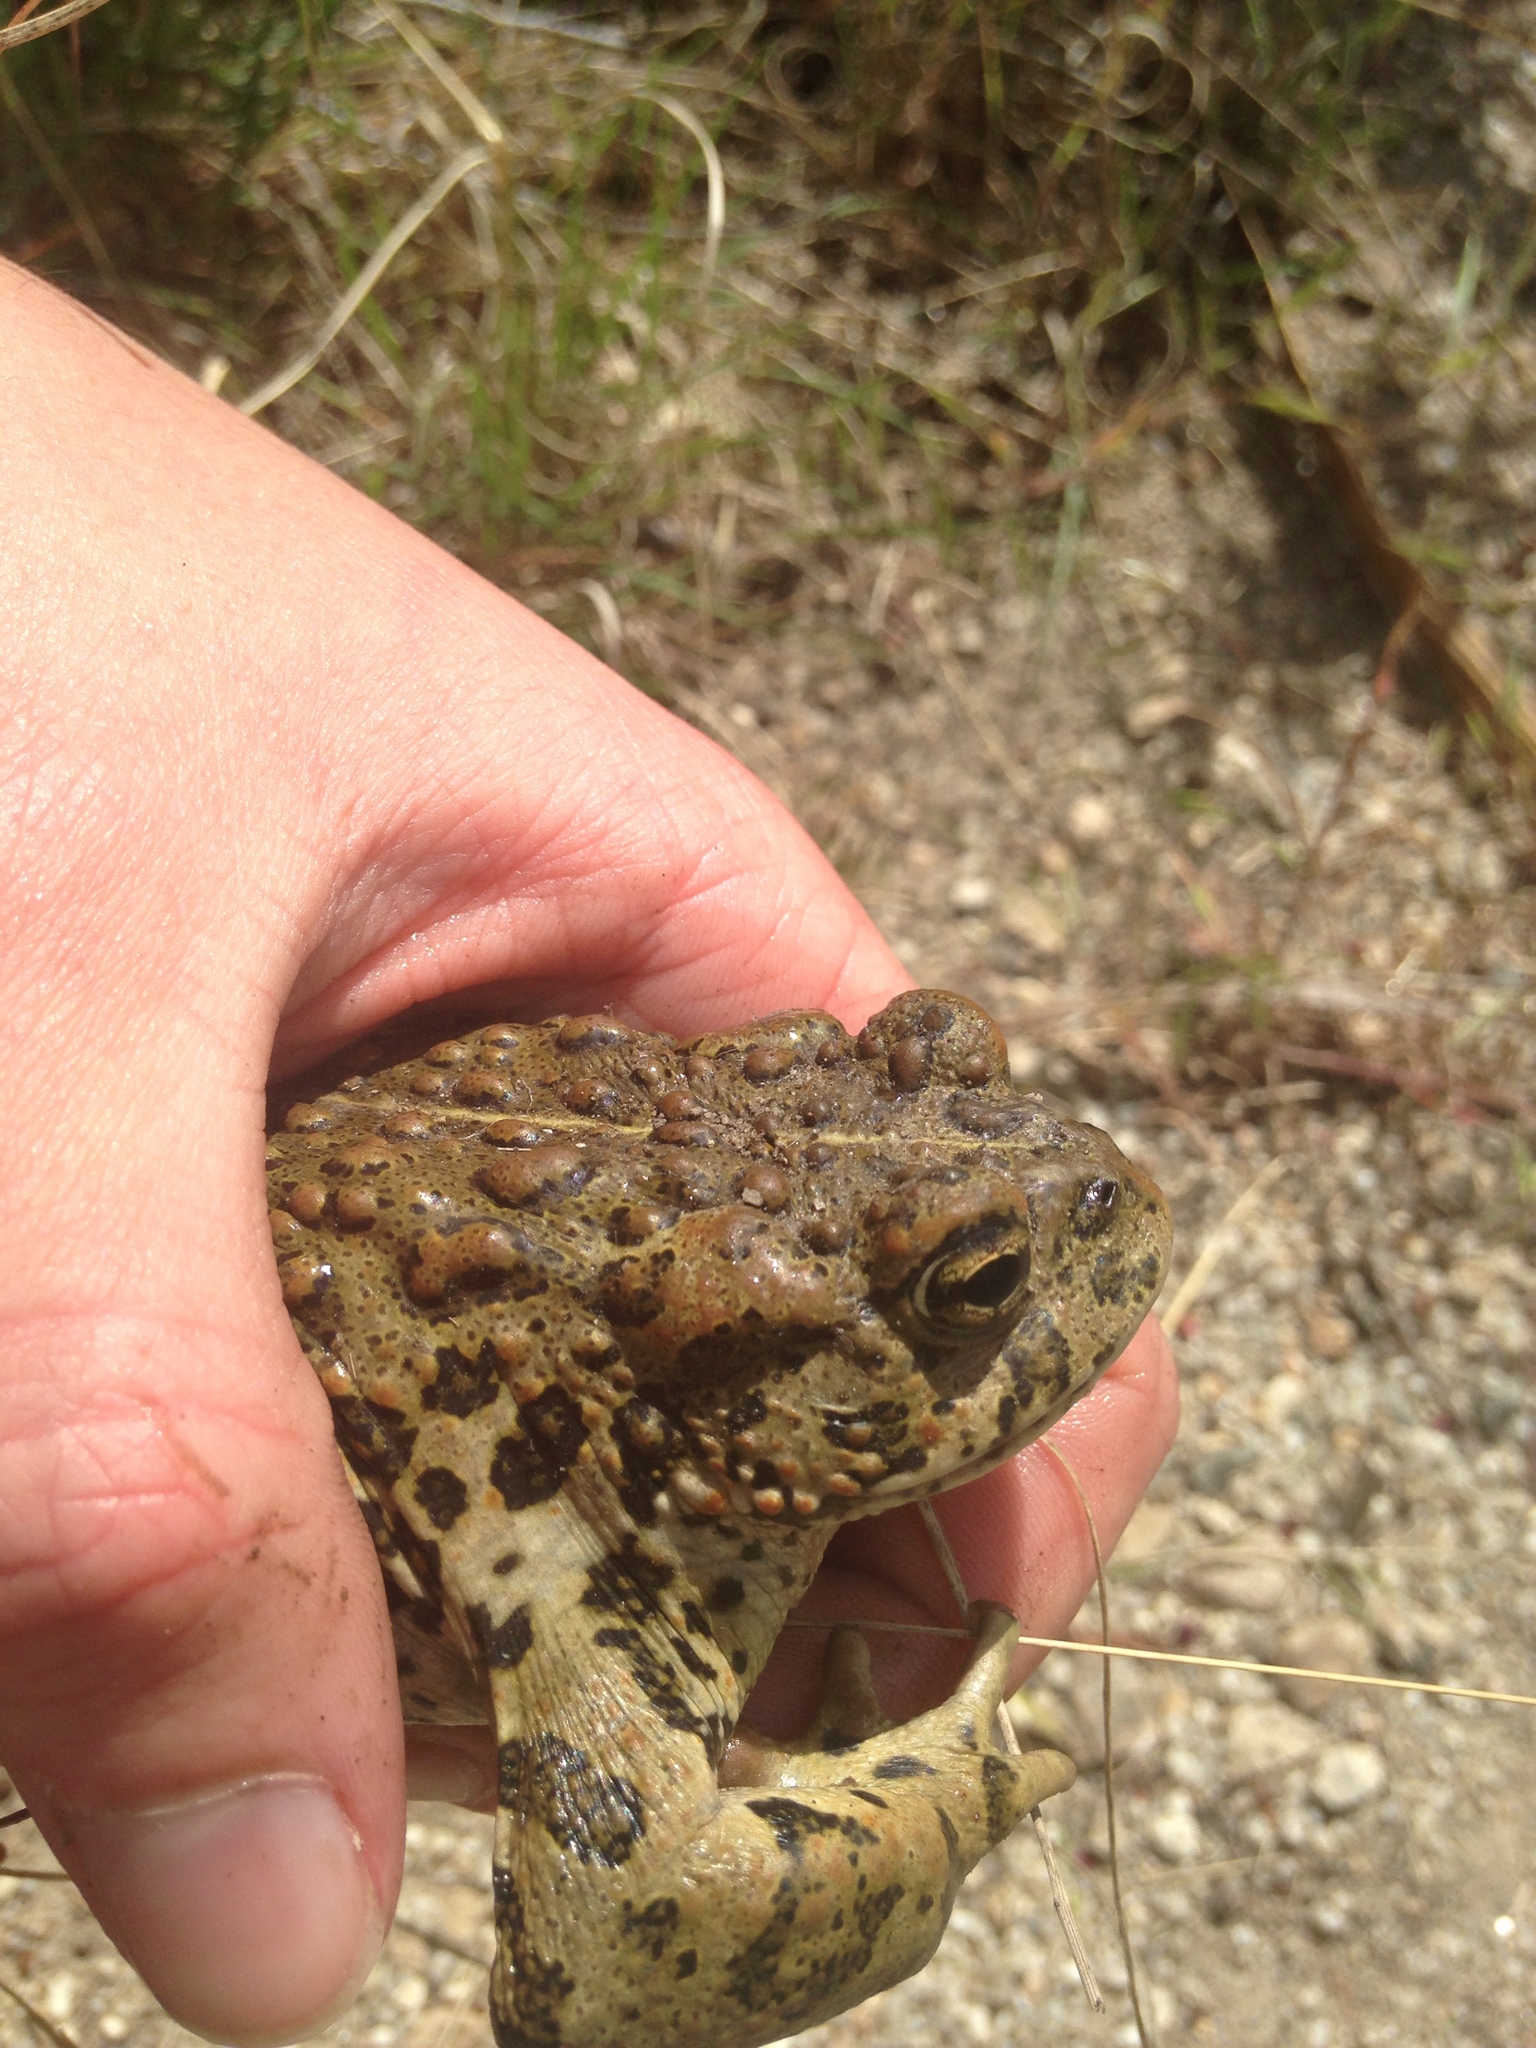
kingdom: Animalia
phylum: Chordata
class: Amphibia
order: Anura
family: Bufonidae
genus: Anaxyrus
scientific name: Anaxyrus boreas
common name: Western toad
